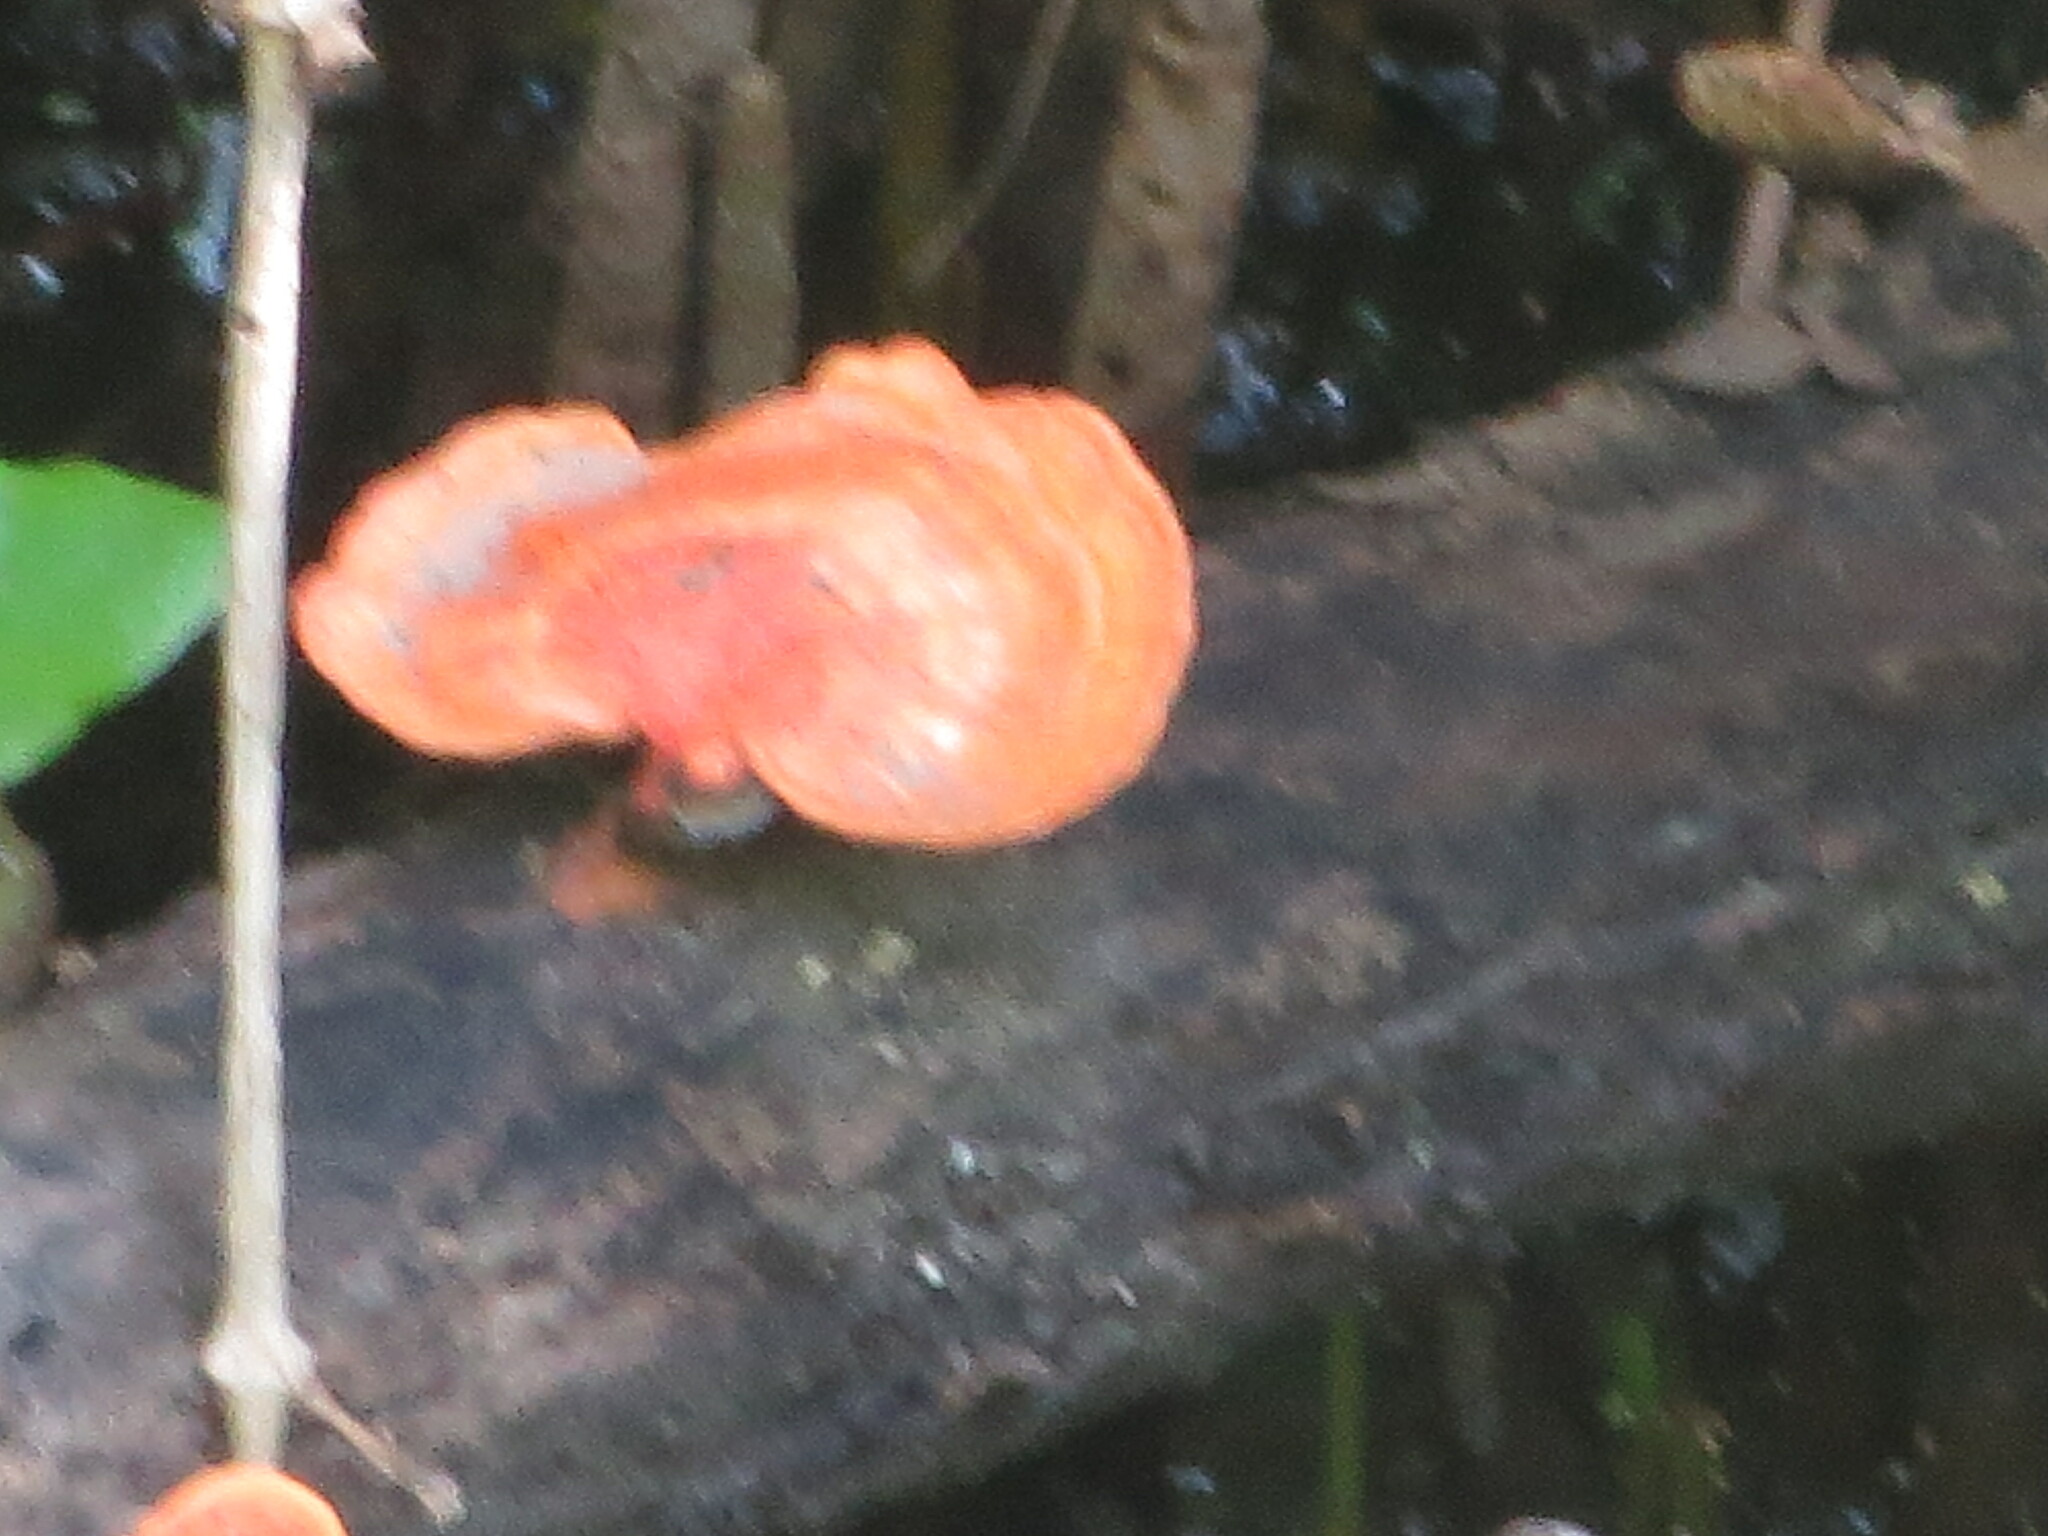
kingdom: Fungi
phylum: Basidiomycota
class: Agaricomycetes
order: Polyporales
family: Polyporaceae
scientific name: Polyporaceae
